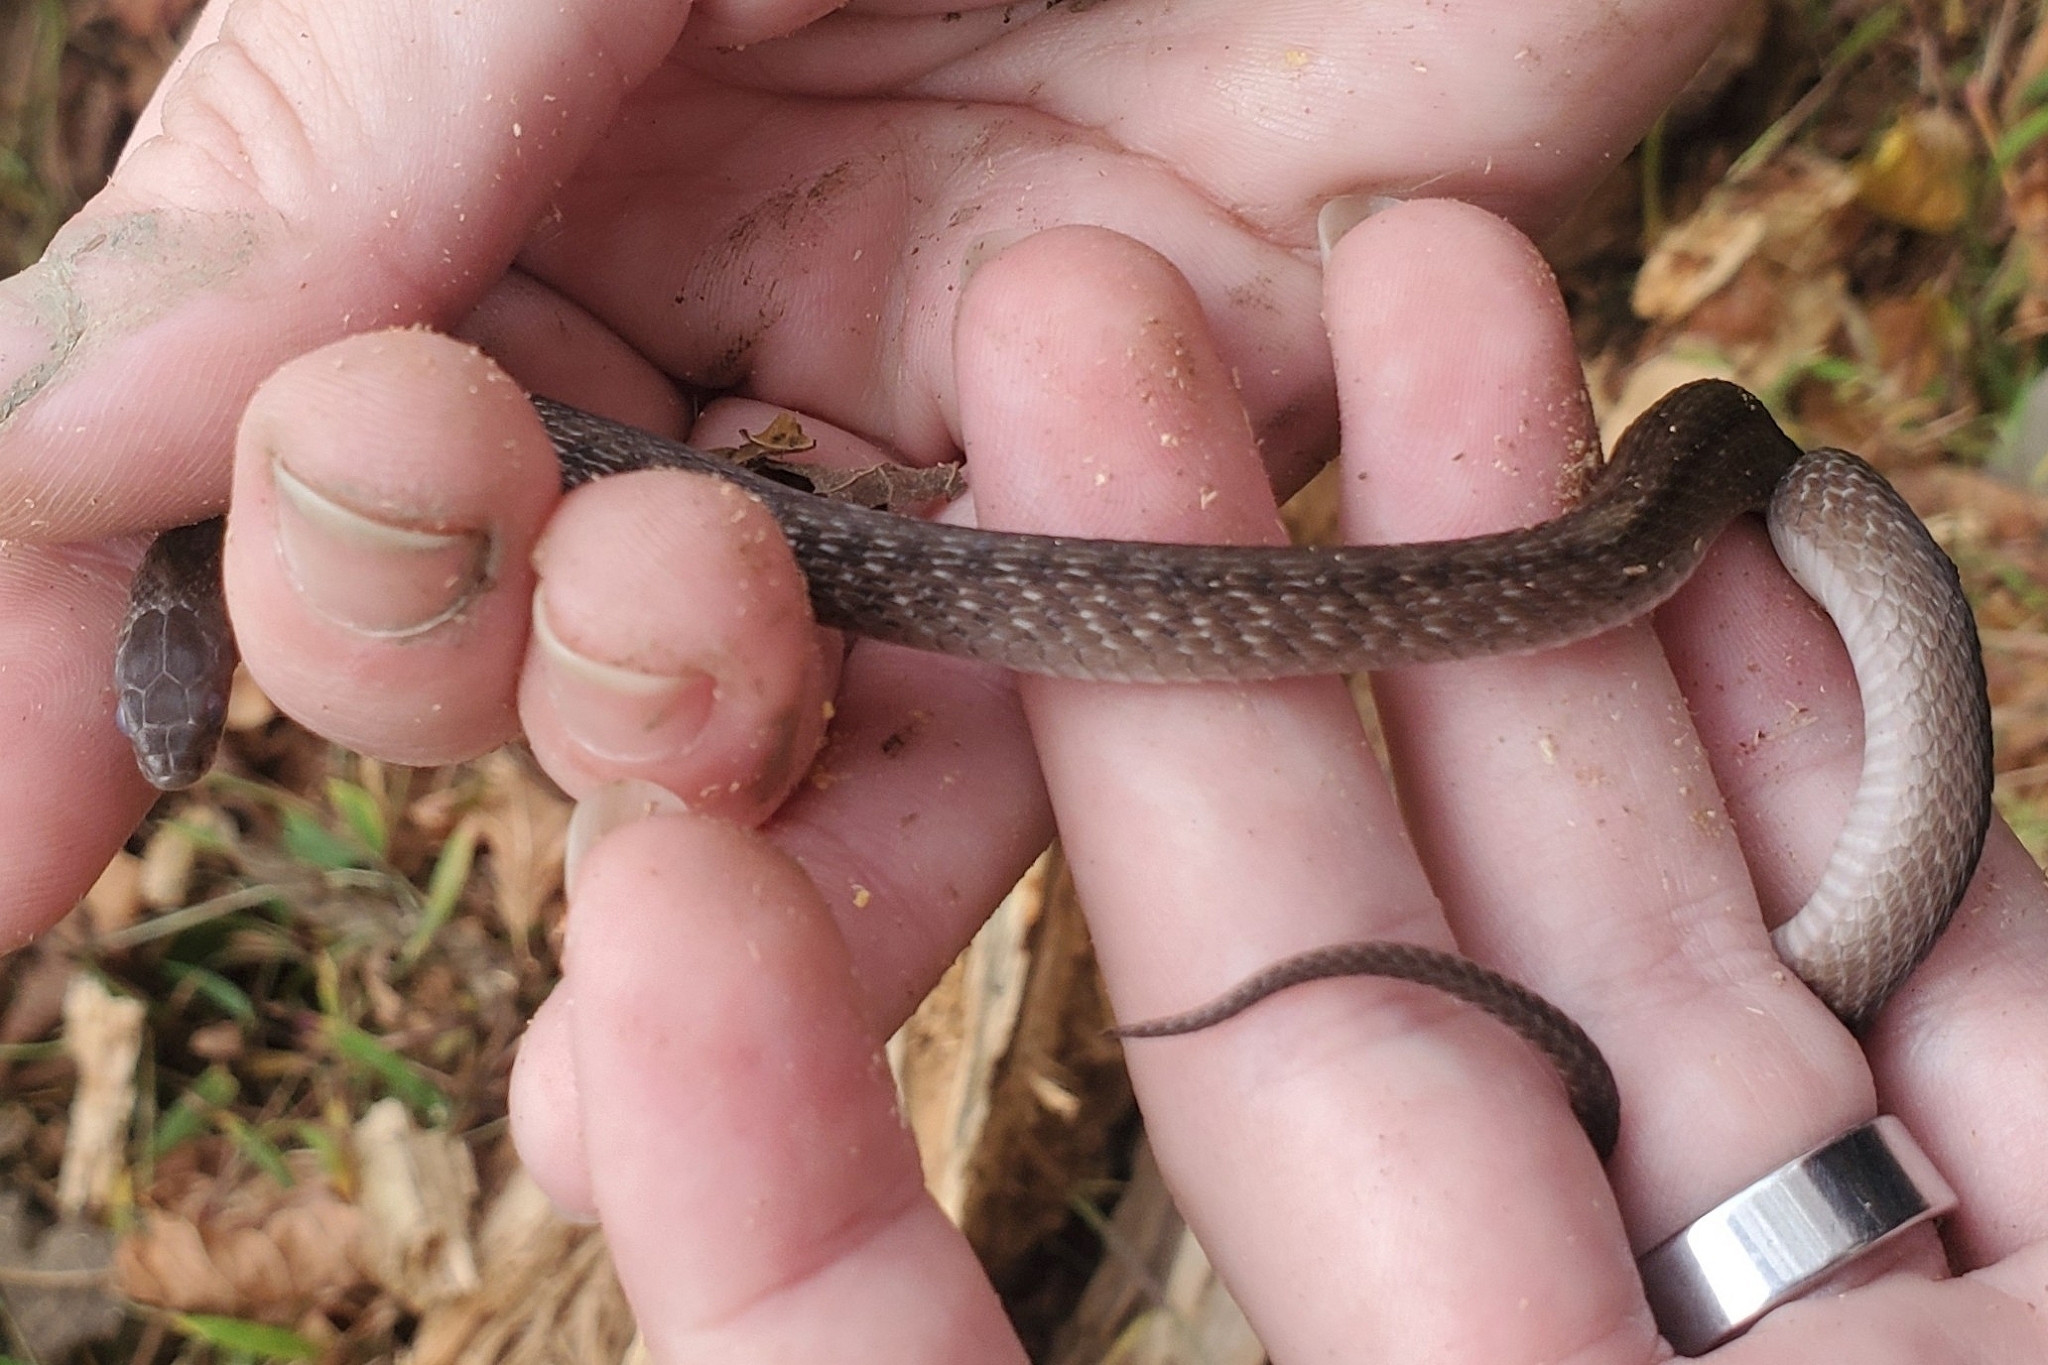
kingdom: Animalia
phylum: Chordata
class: Squamata
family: Colubridae
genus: Storeria
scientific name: Storeria dekayi
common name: (dekay’s) brown snake
